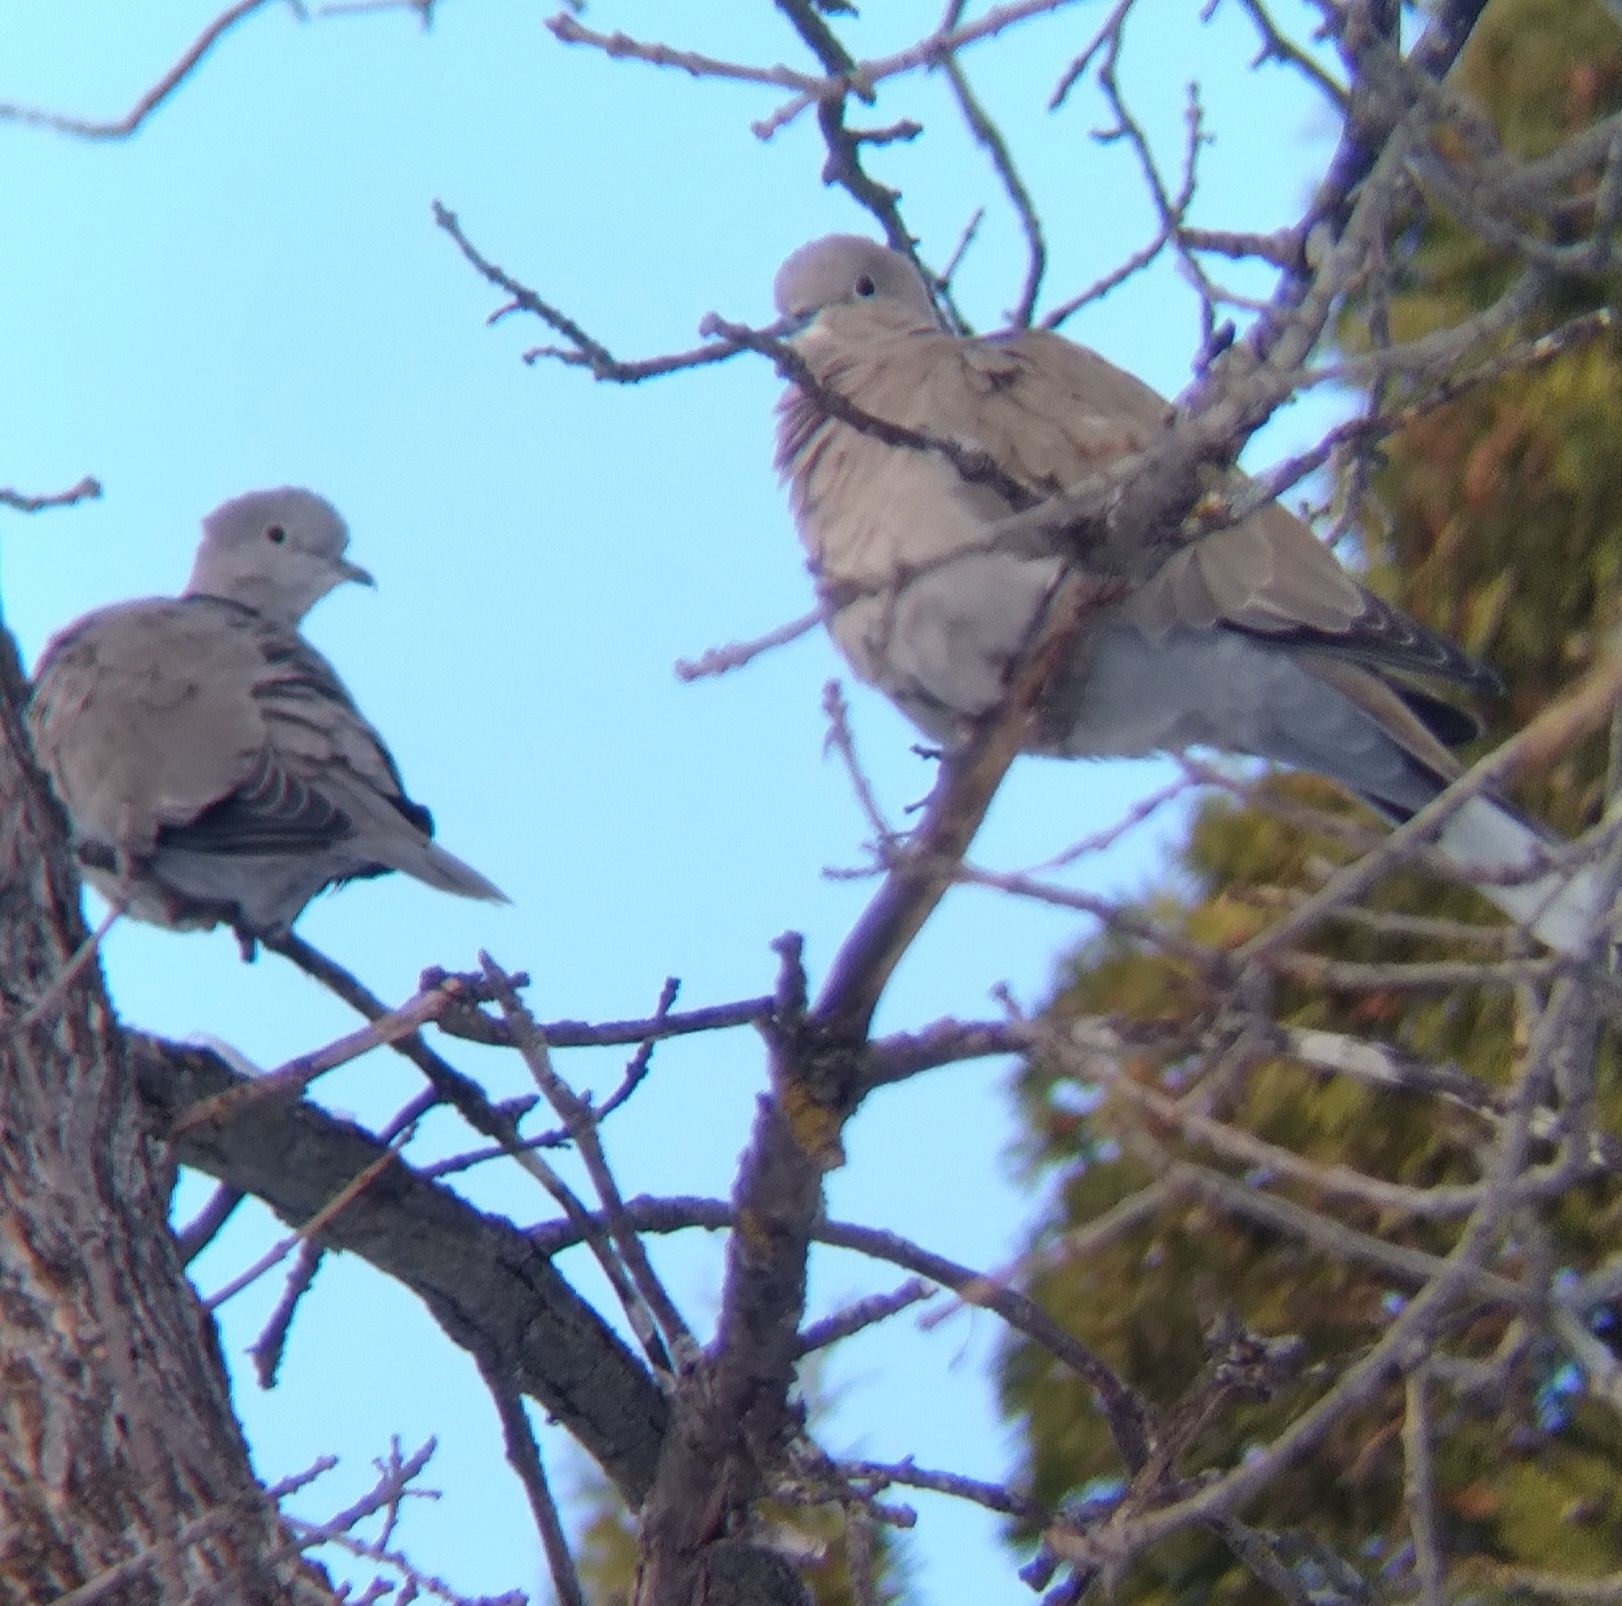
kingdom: Animalia
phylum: Chordata
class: Aves
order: Columbiformes
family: Columbidae
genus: Streptopelia
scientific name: Streptopelia decaocto
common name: Eurasian collared dove
